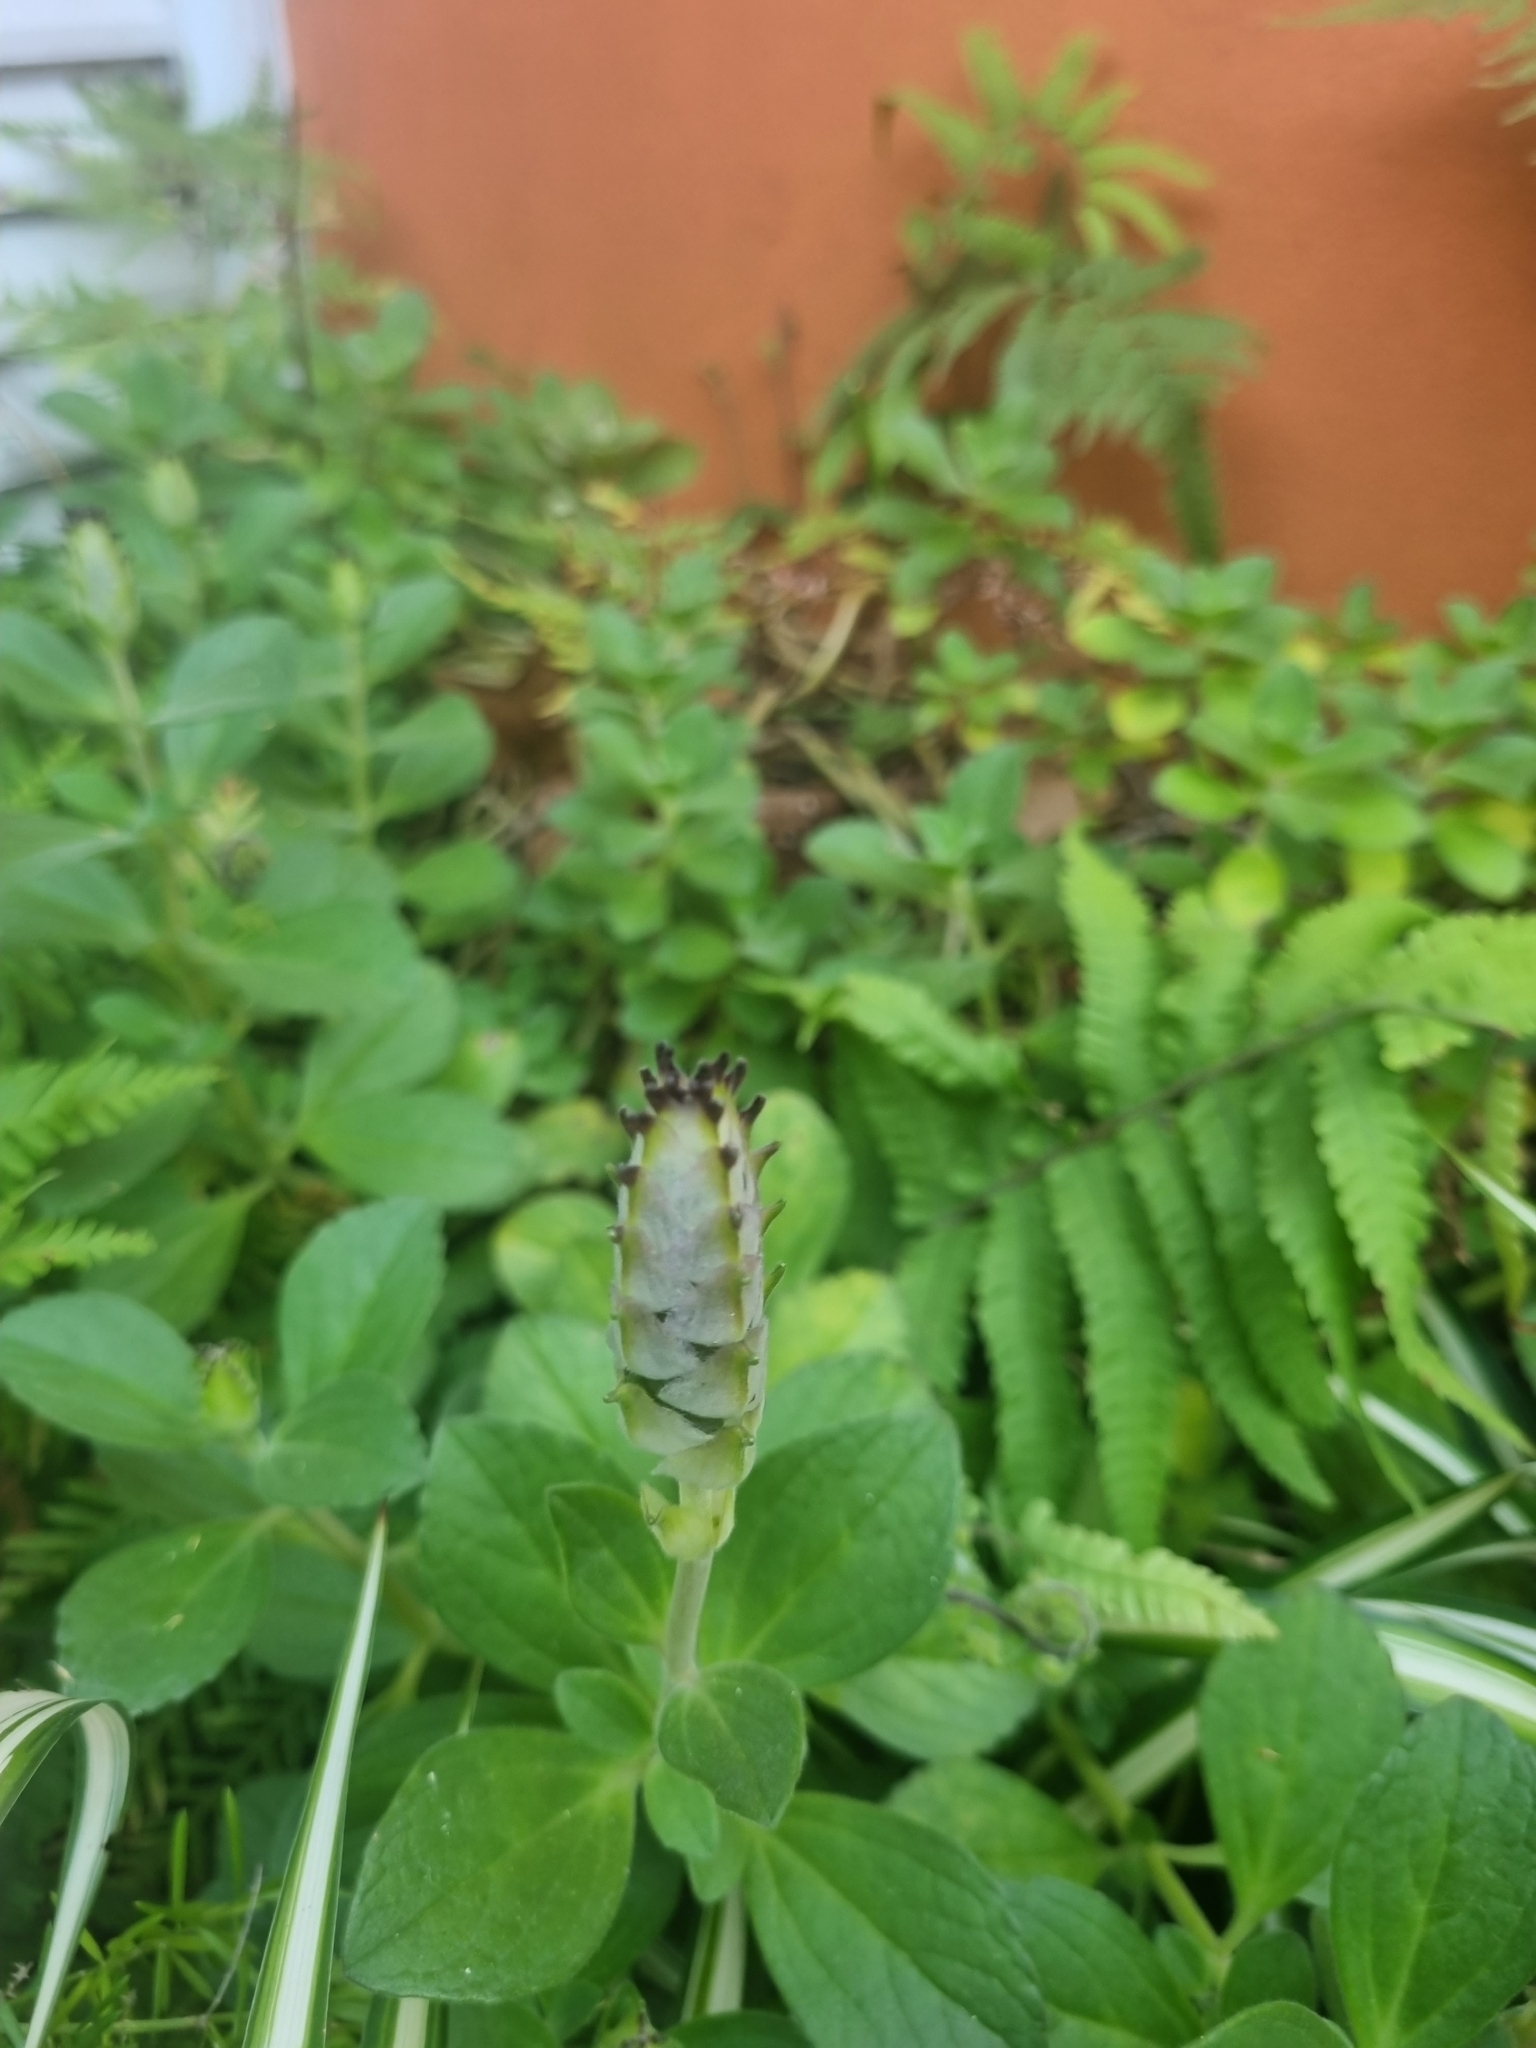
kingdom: Plantae
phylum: Tracheophyta
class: Magnoliopsida
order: Lamiales
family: Lamiaceae
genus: Coleus
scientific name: Coleus neochilus
